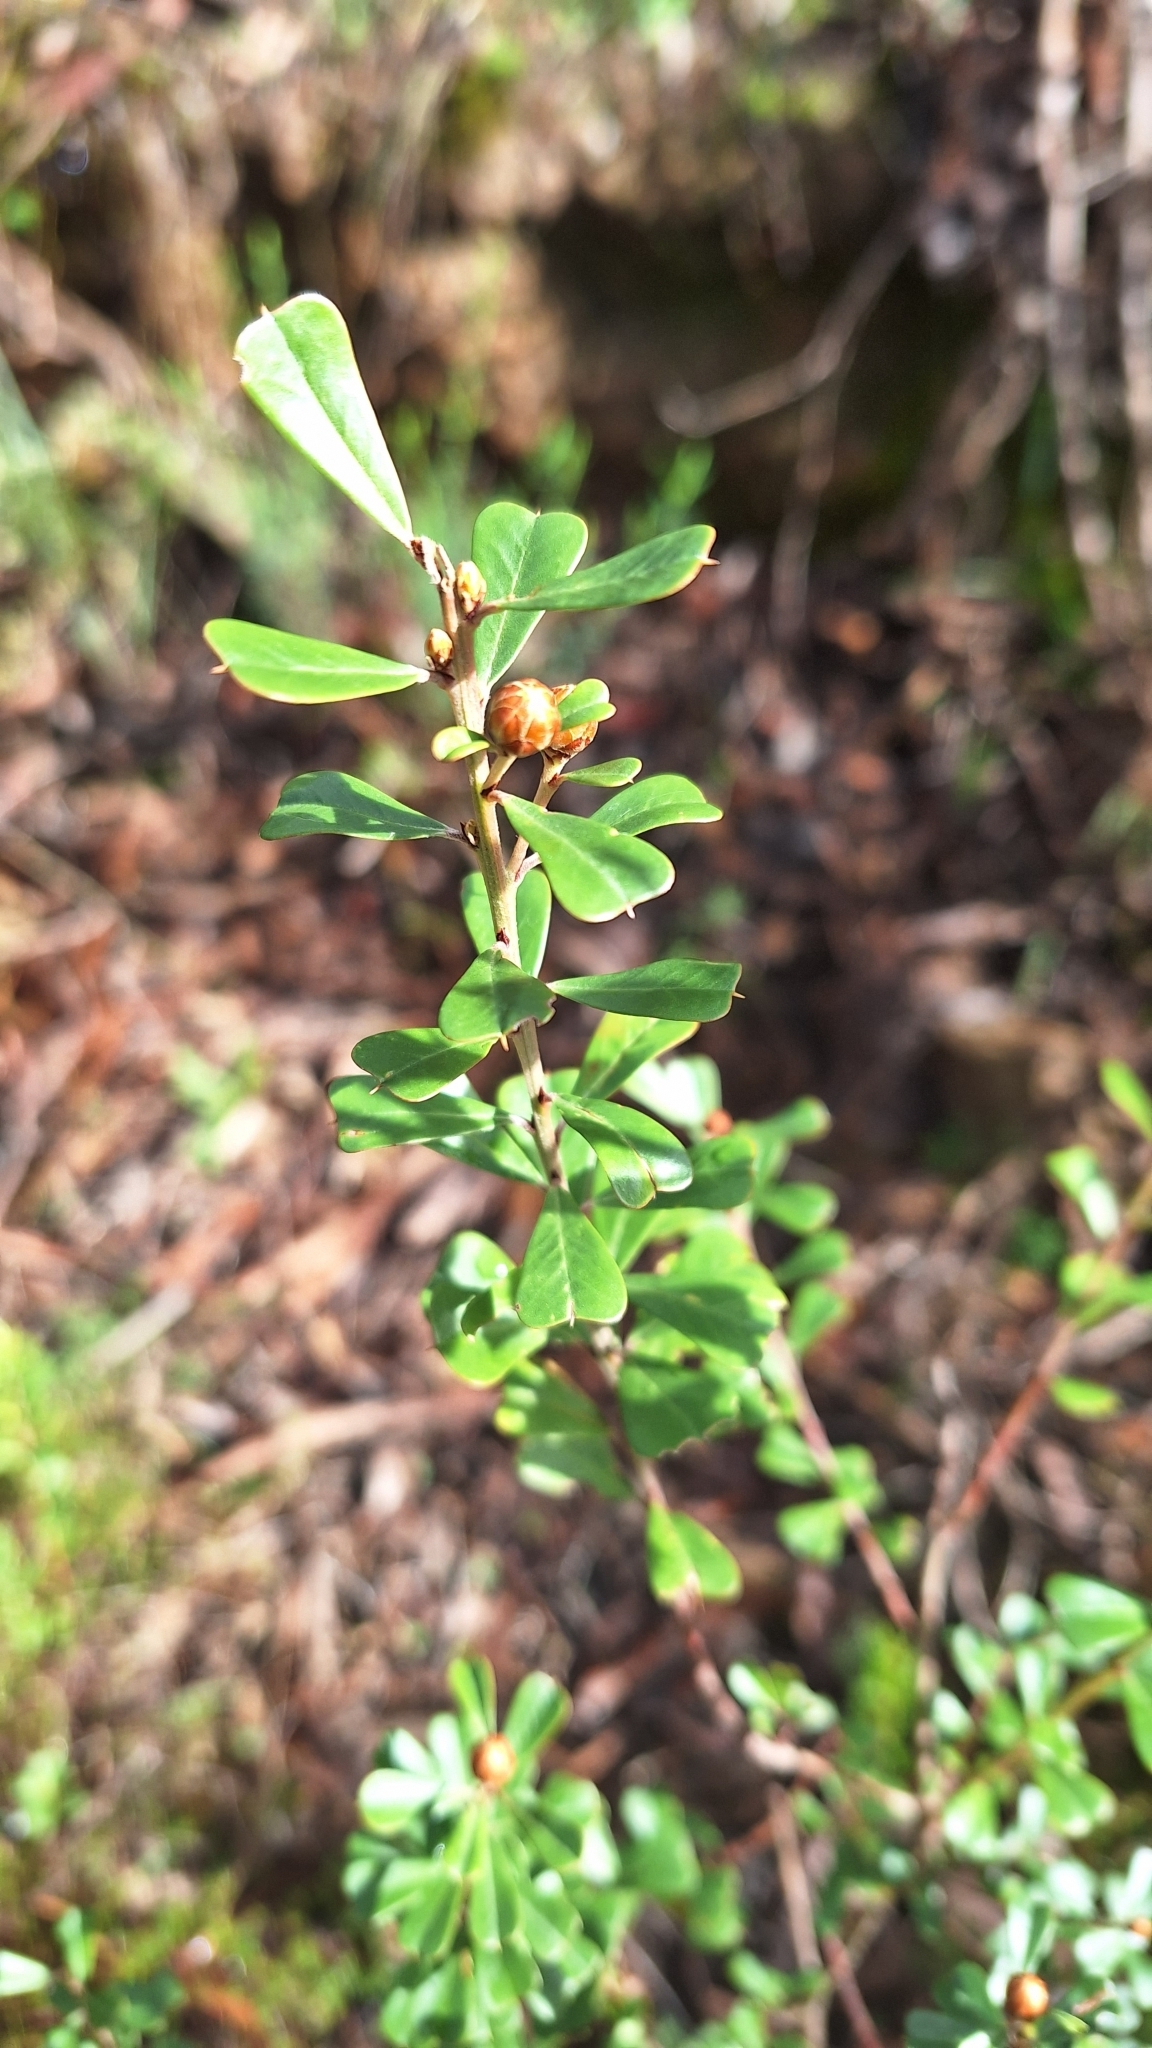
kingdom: Plantae
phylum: Tracheophyta
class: Magnoliopsida
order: Fabales
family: Fabaceae
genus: Pultenaea
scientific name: Pultenaea daphnoides
